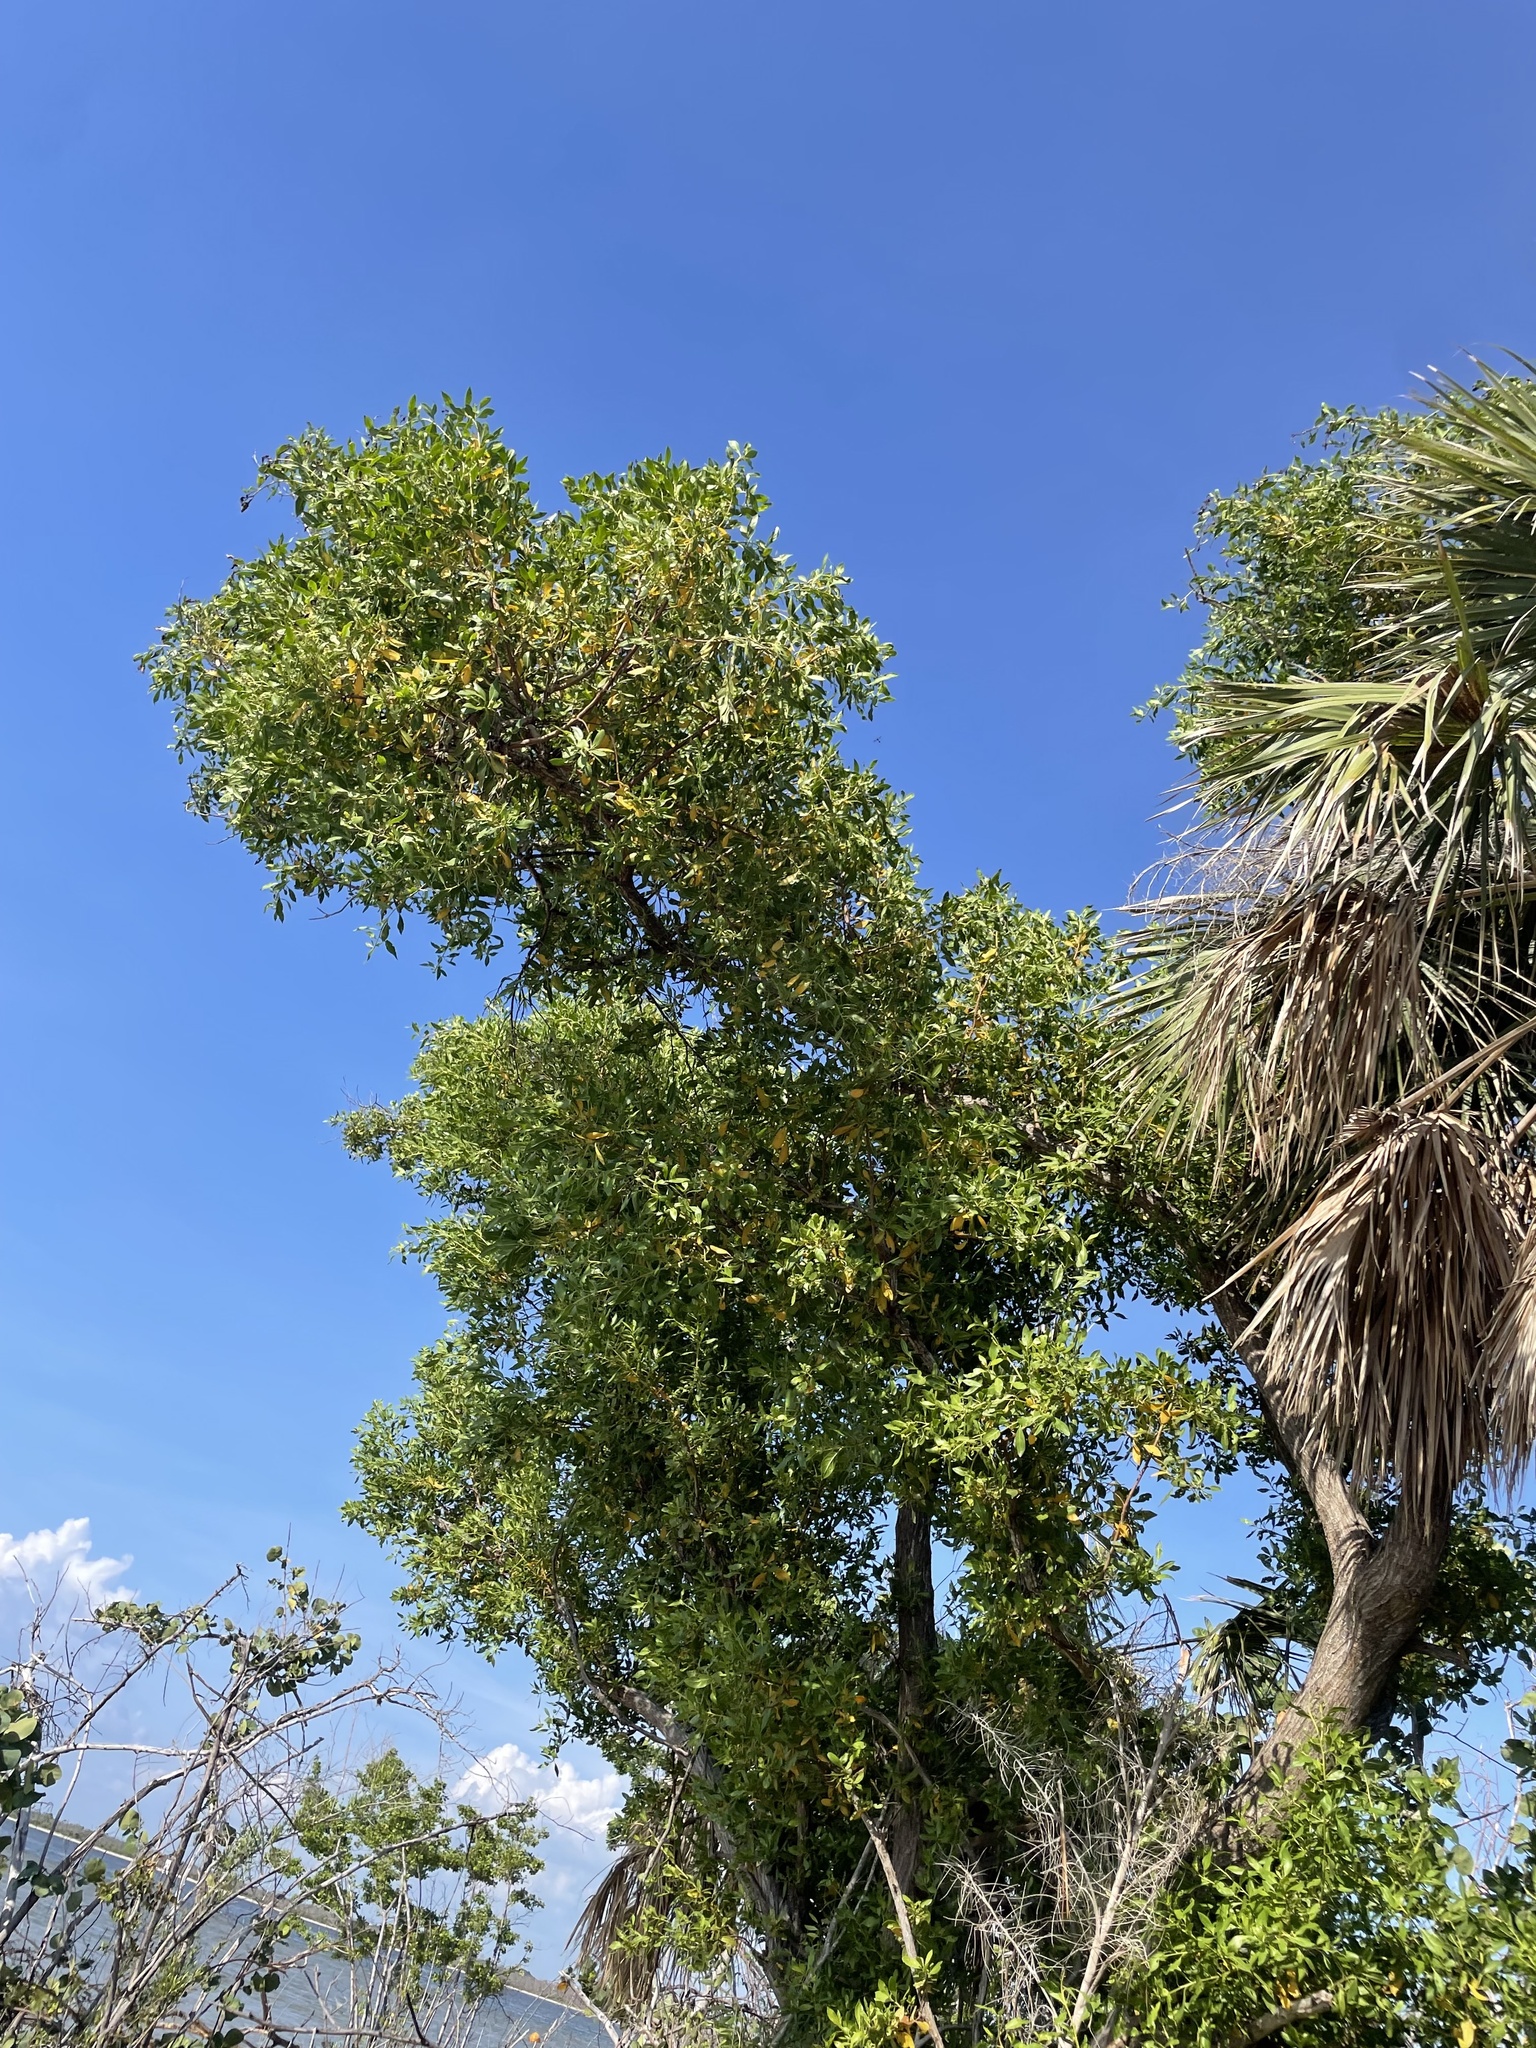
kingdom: Plantae
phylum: Tracheophyta
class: Magnoliopsida
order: Myrtales
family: Combretaceae
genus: Conocarpus
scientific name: Conocarpus erectus
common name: Button mangrove
